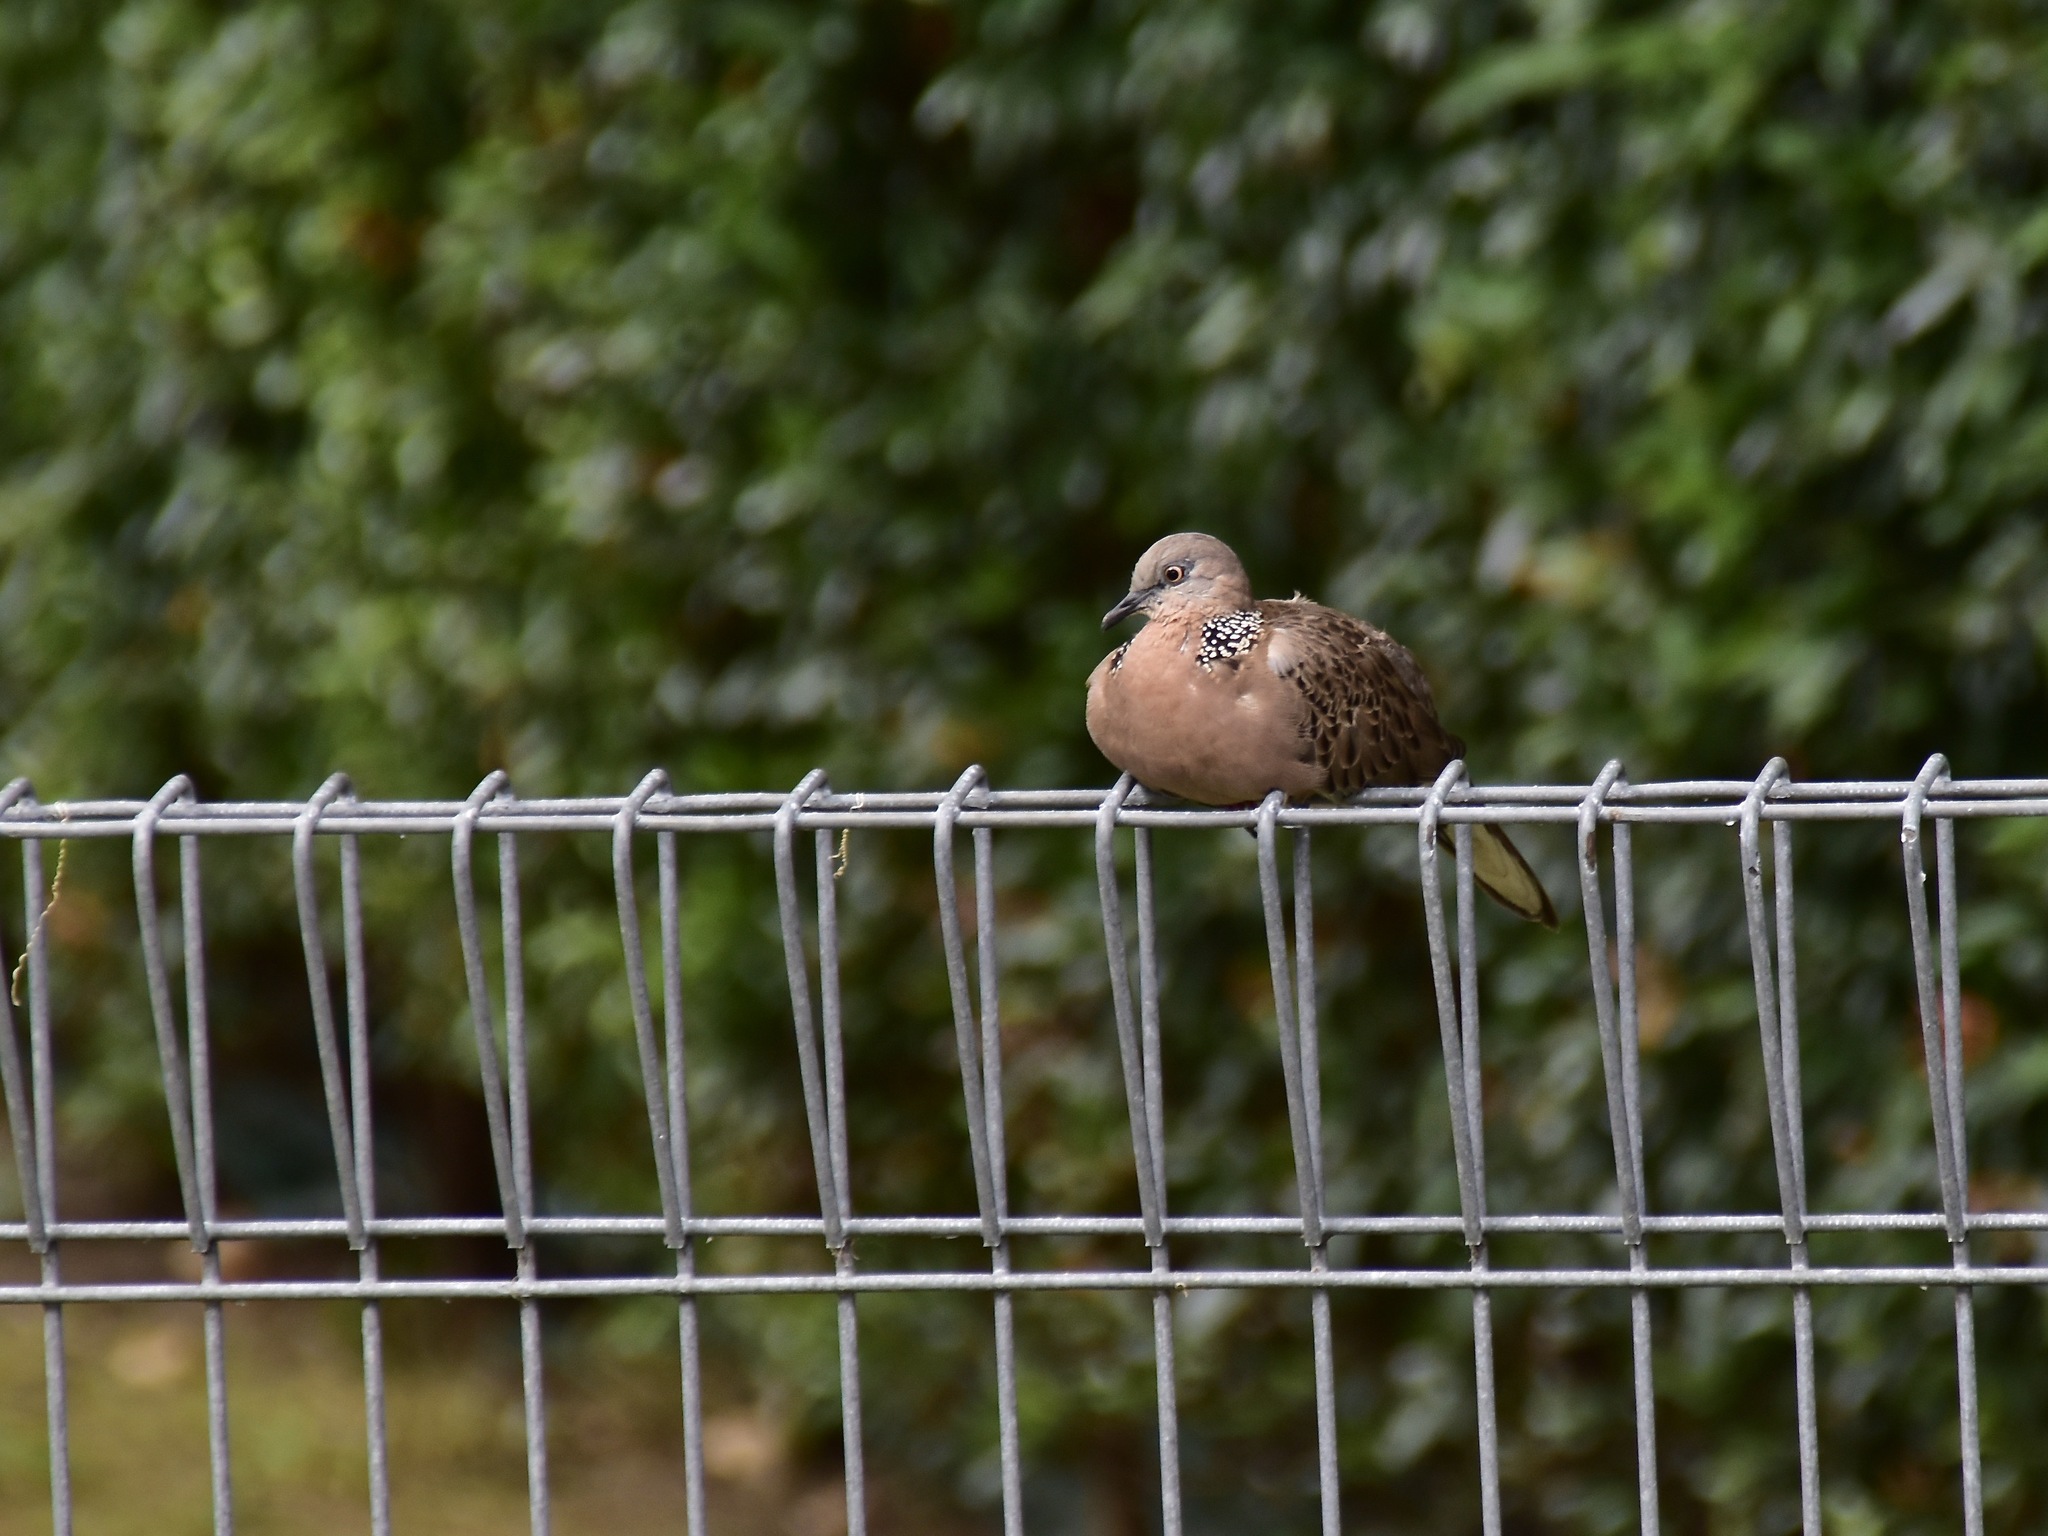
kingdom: Animalia
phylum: Chordata
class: Aves
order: Columbiformes
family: Columbidae
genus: Spilopelia
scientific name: Spilopelia chinensis
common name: Spotted dove
